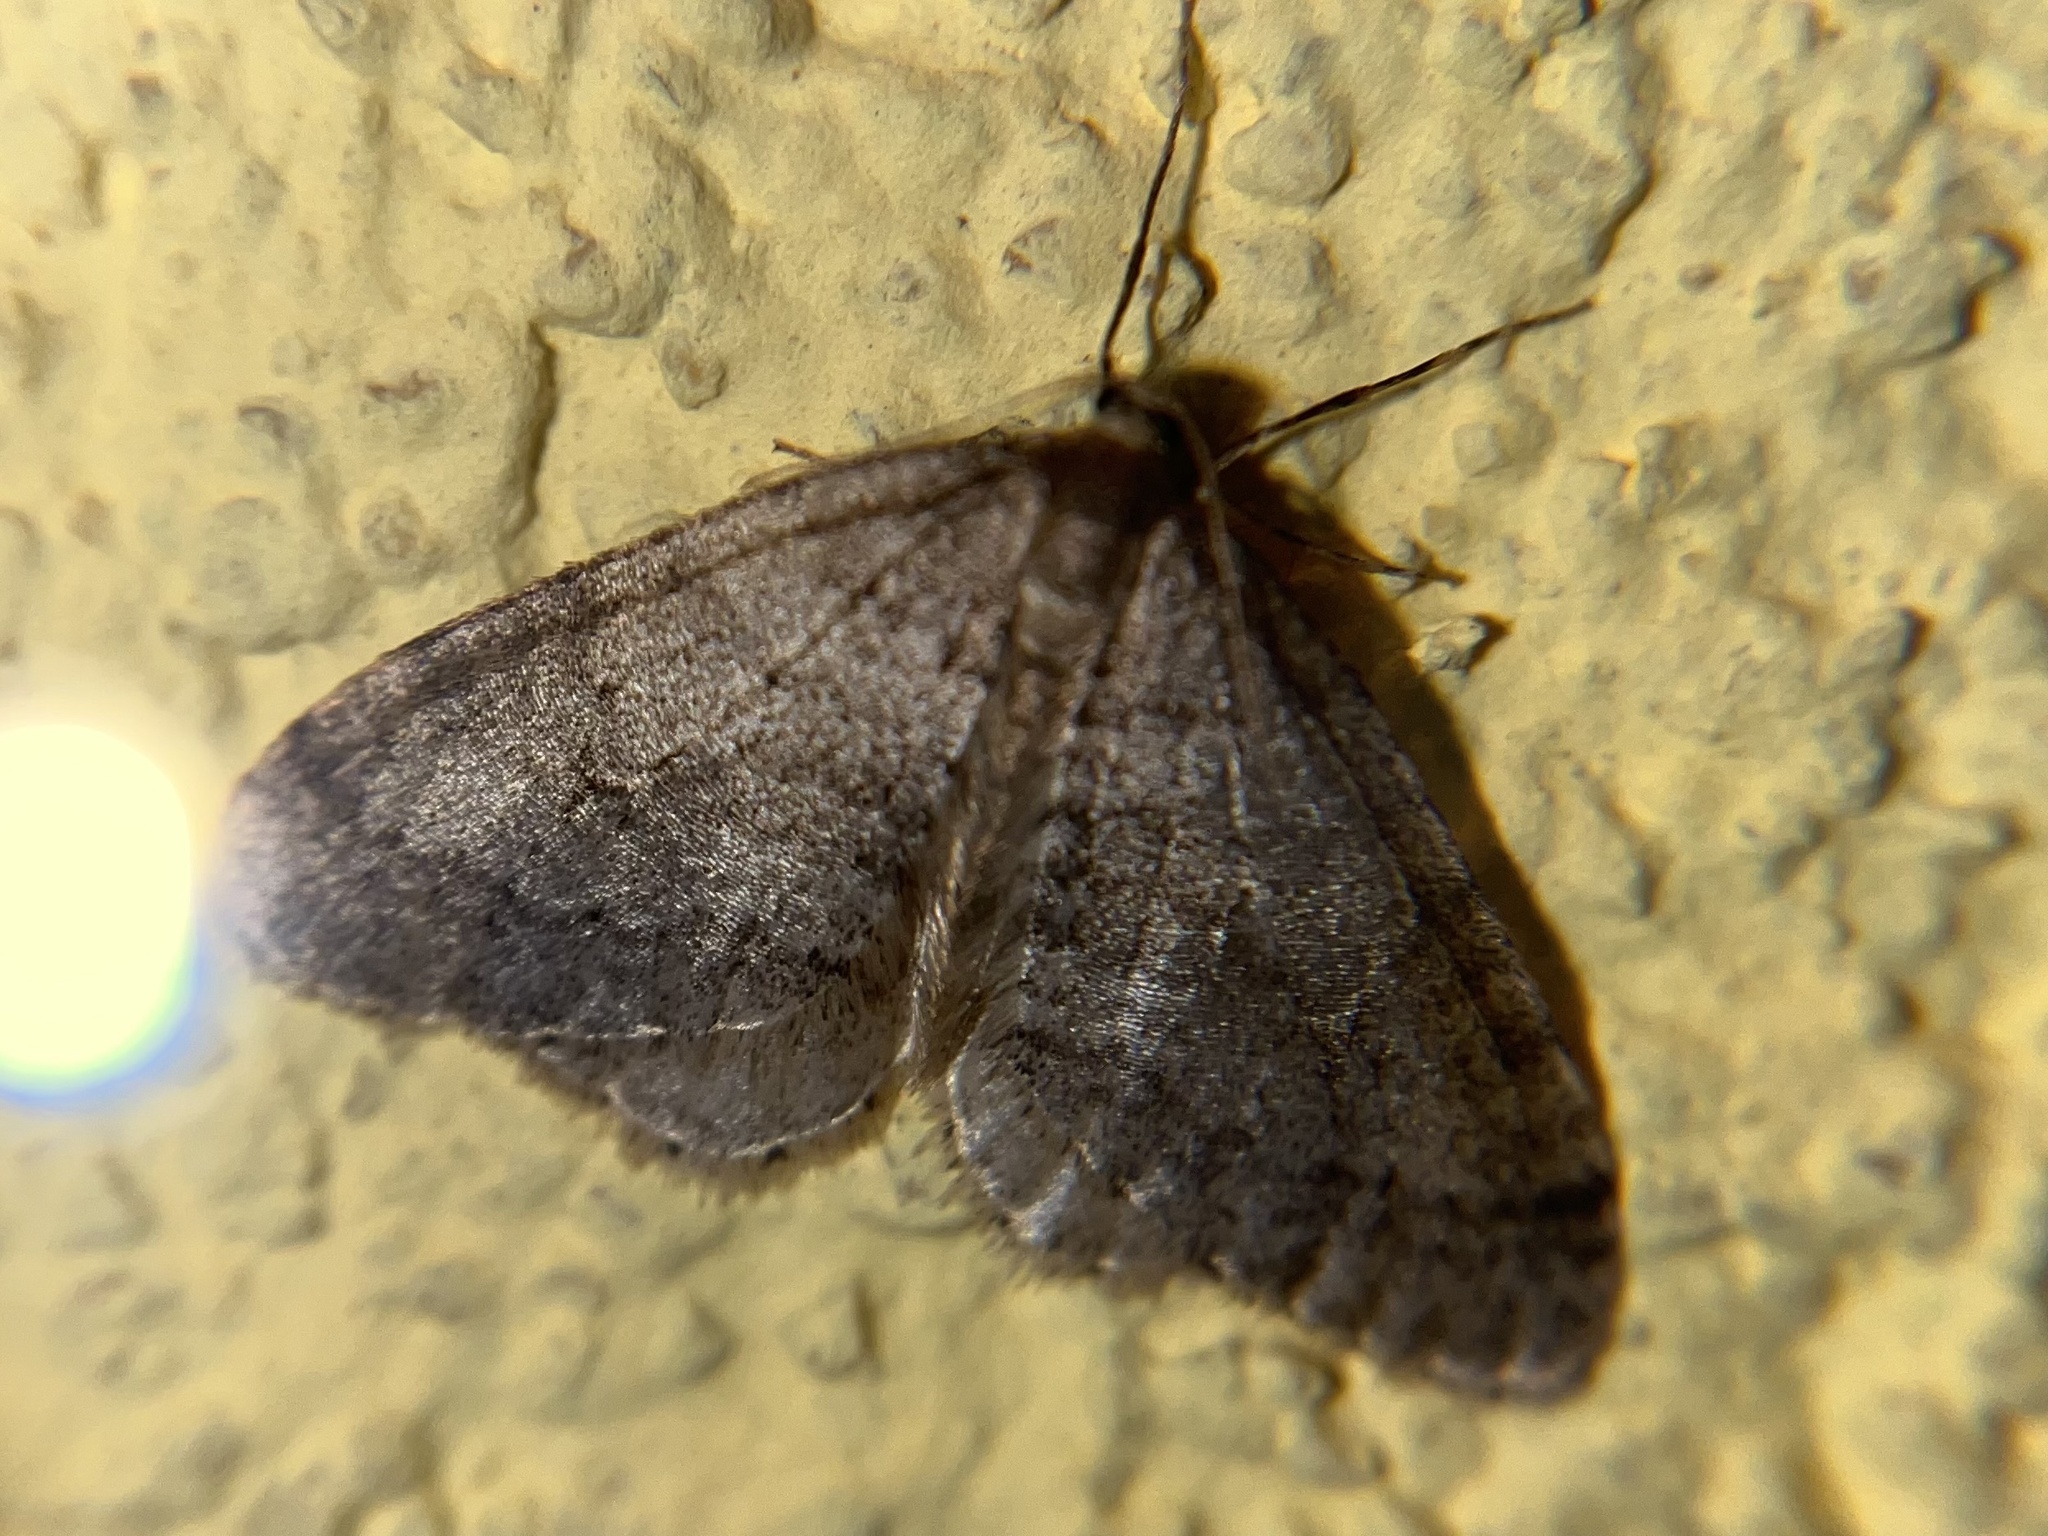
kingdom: Animalia
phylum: Arthropoda
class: Insecta
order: Lepidoptera
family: Geometridae
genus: Operophtera
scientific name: Operophtera brumata
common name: Winter moth
